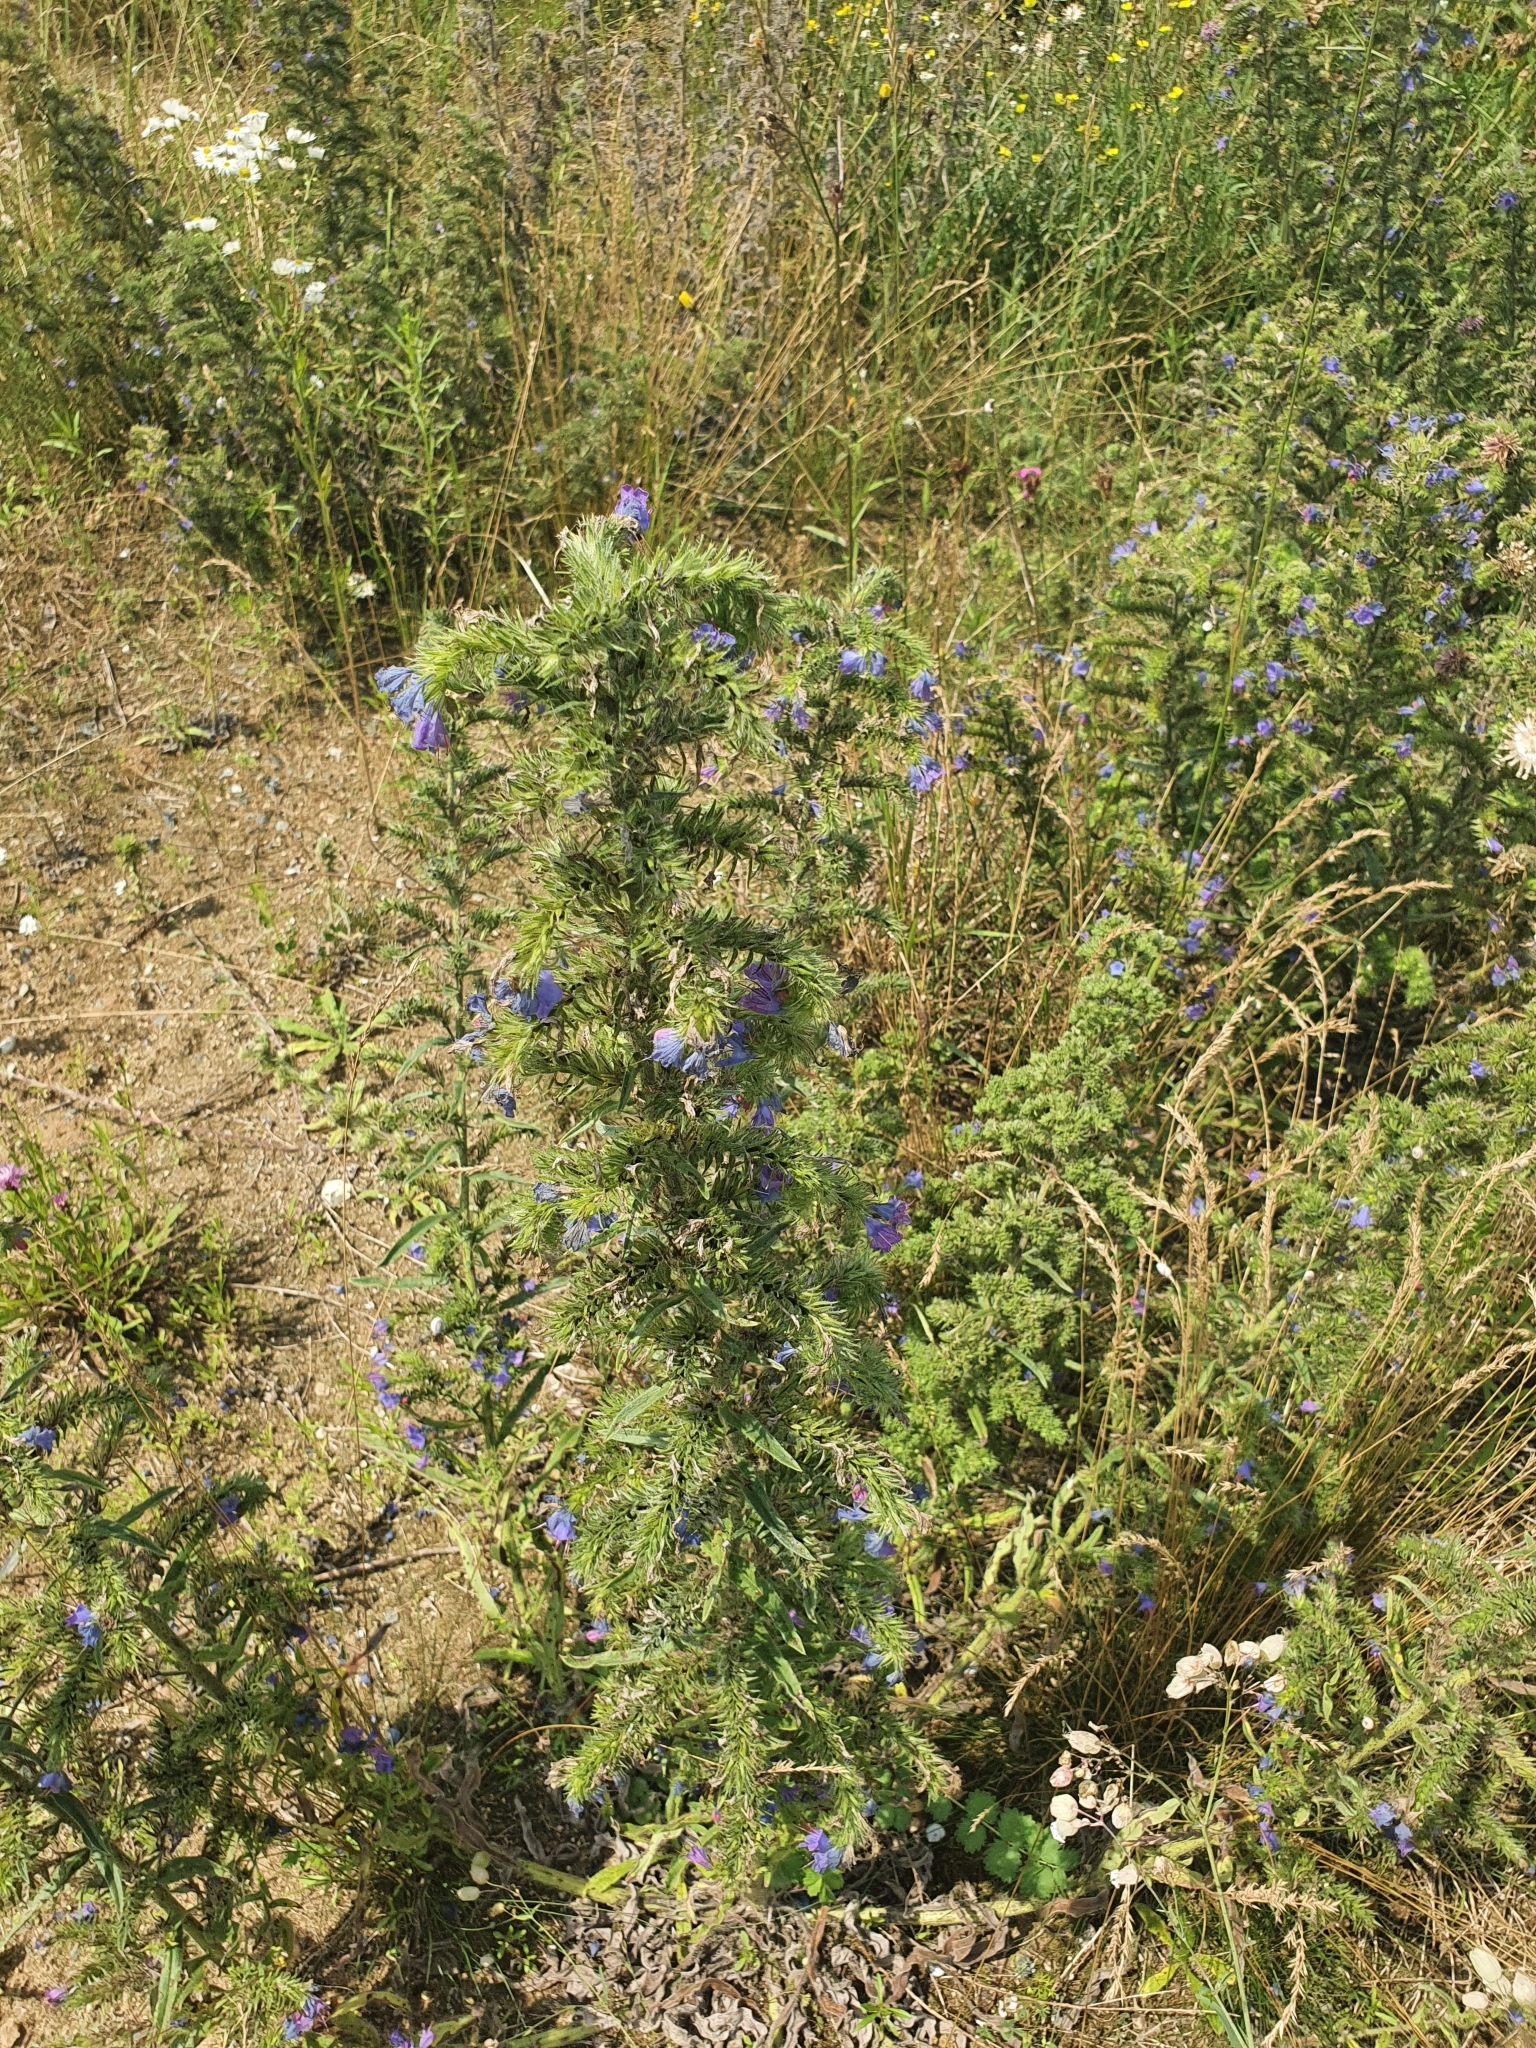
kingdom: Plantae
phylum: Tracheophyta
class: Magnoliopsida
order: Boraginales
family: Boraginaceae
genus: Echium
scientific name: Echium vulgare
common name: Common viper's bugloss
